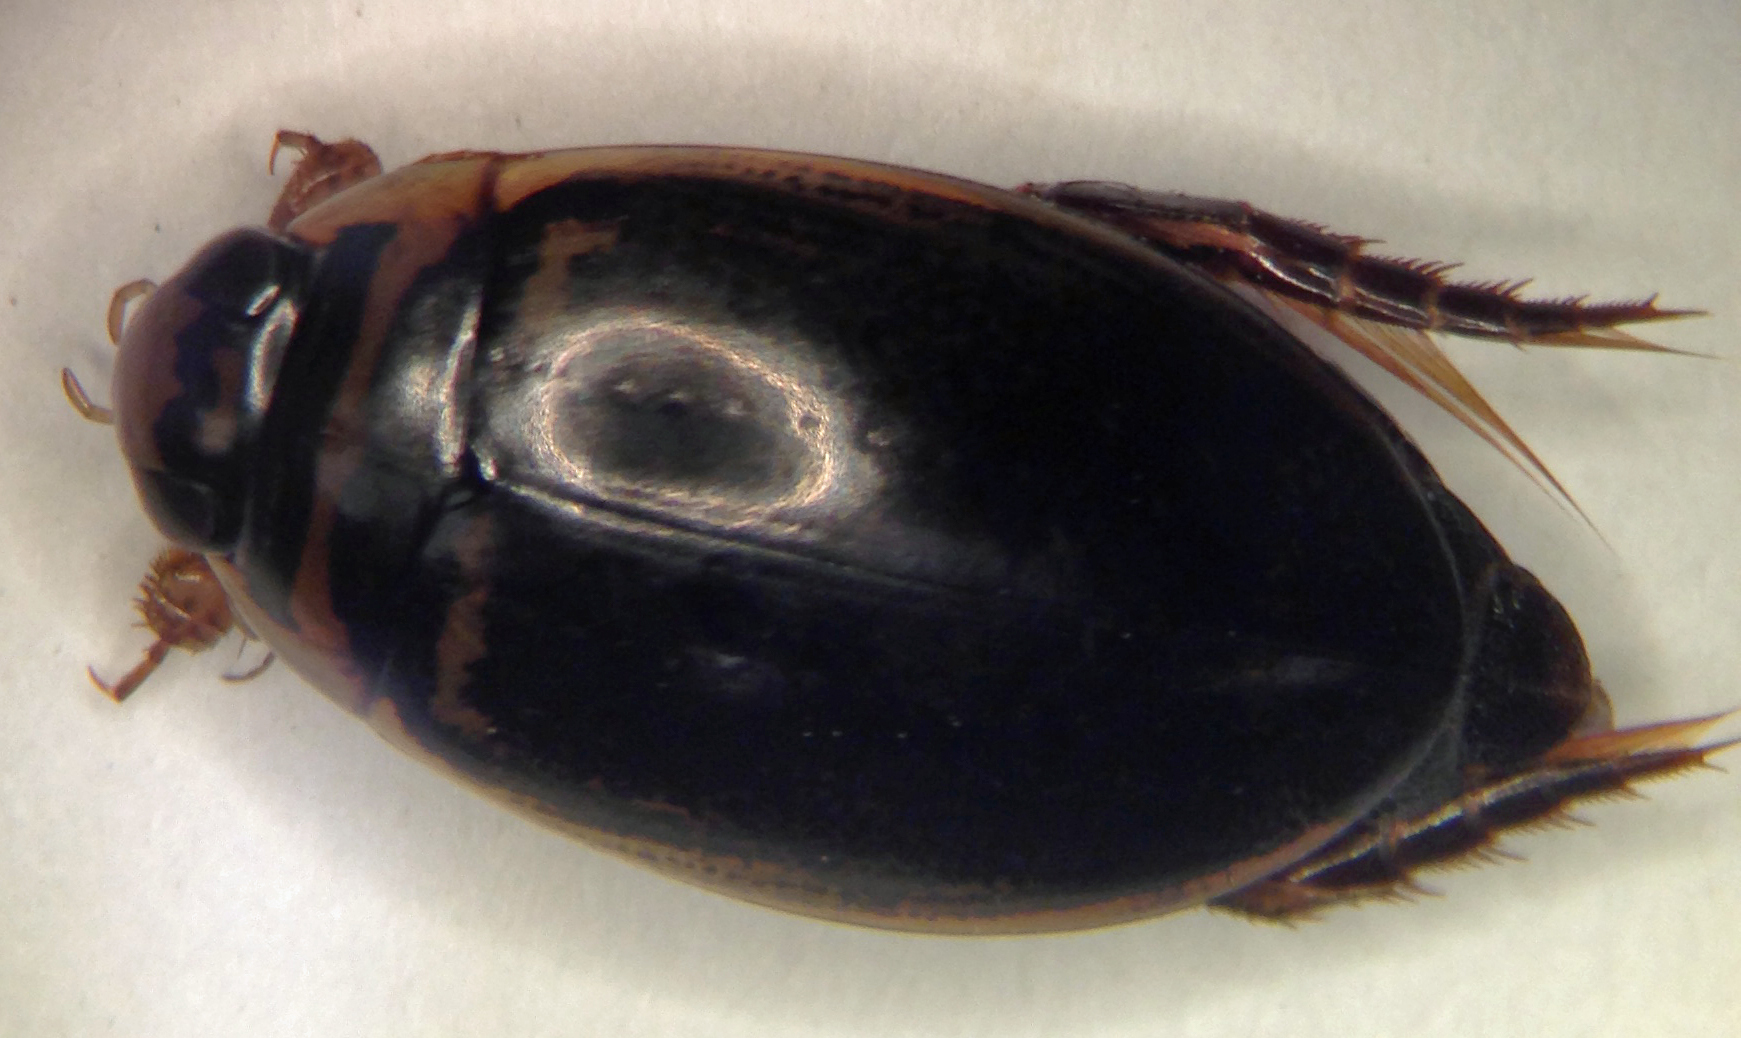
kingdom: Animalia
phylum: Arthropoda
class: Insecta
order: Coleoptera
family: Dytiscidae
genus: Thermonectus
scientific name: Thermonectus basillaris
